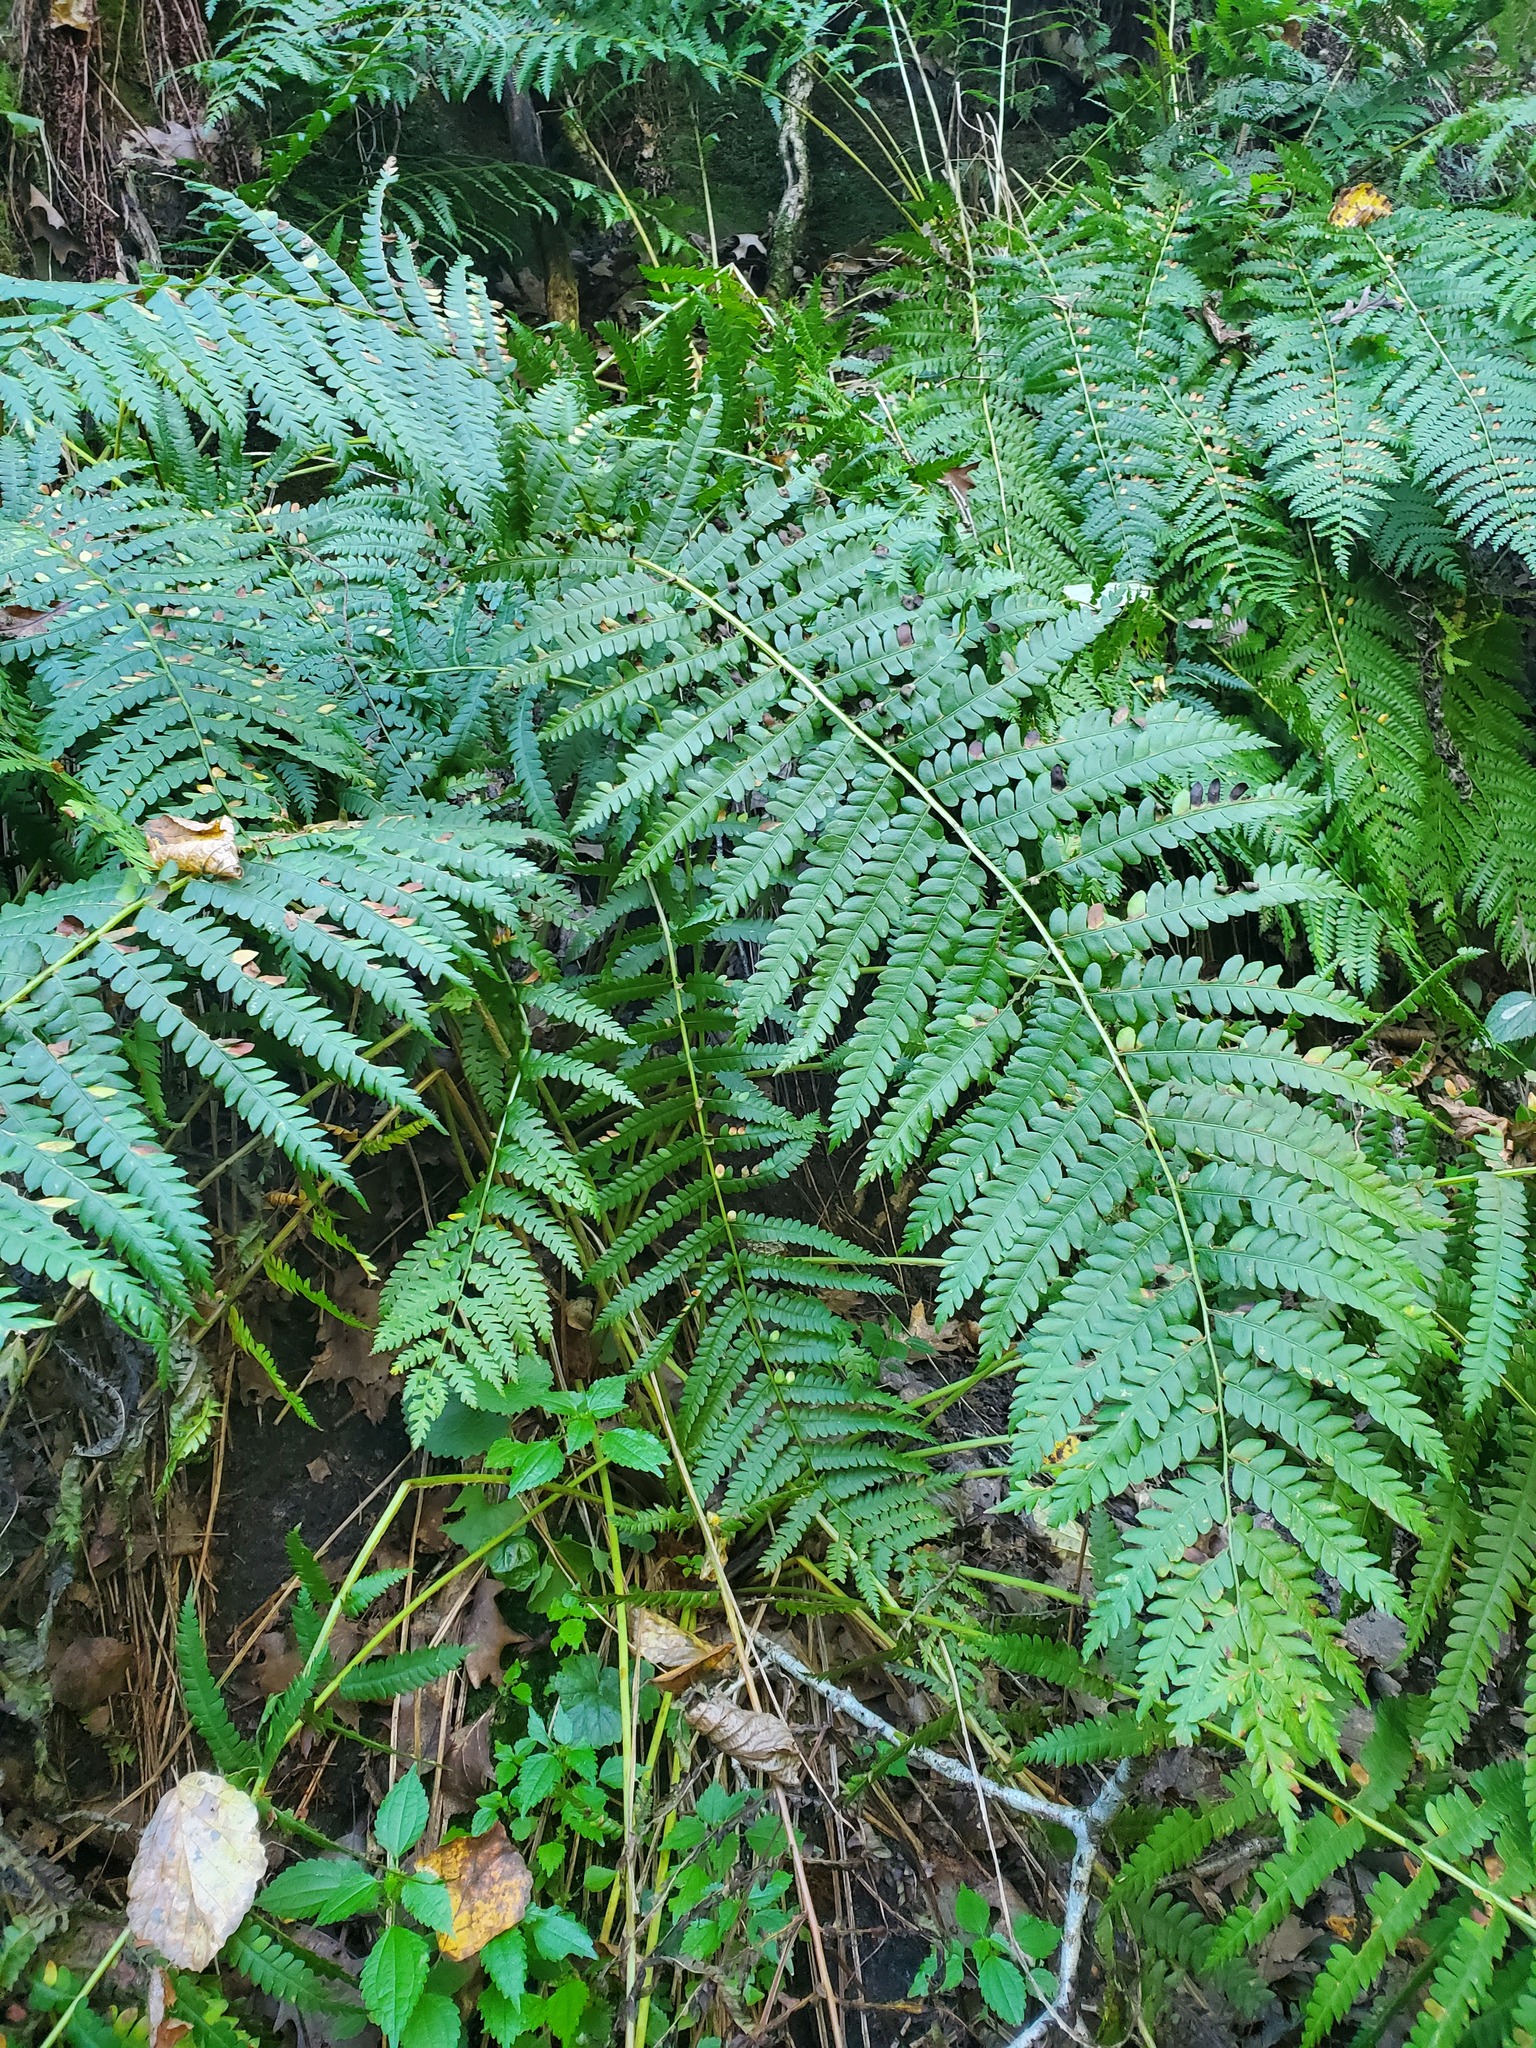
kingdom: Plantae
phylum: Tracheophyta
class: Polypodiopsida
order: Osmundales
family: Osmundaceae
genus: Osmundastrum
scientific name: Osmundastrum cinnamomeum
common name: Cinnamon fern
